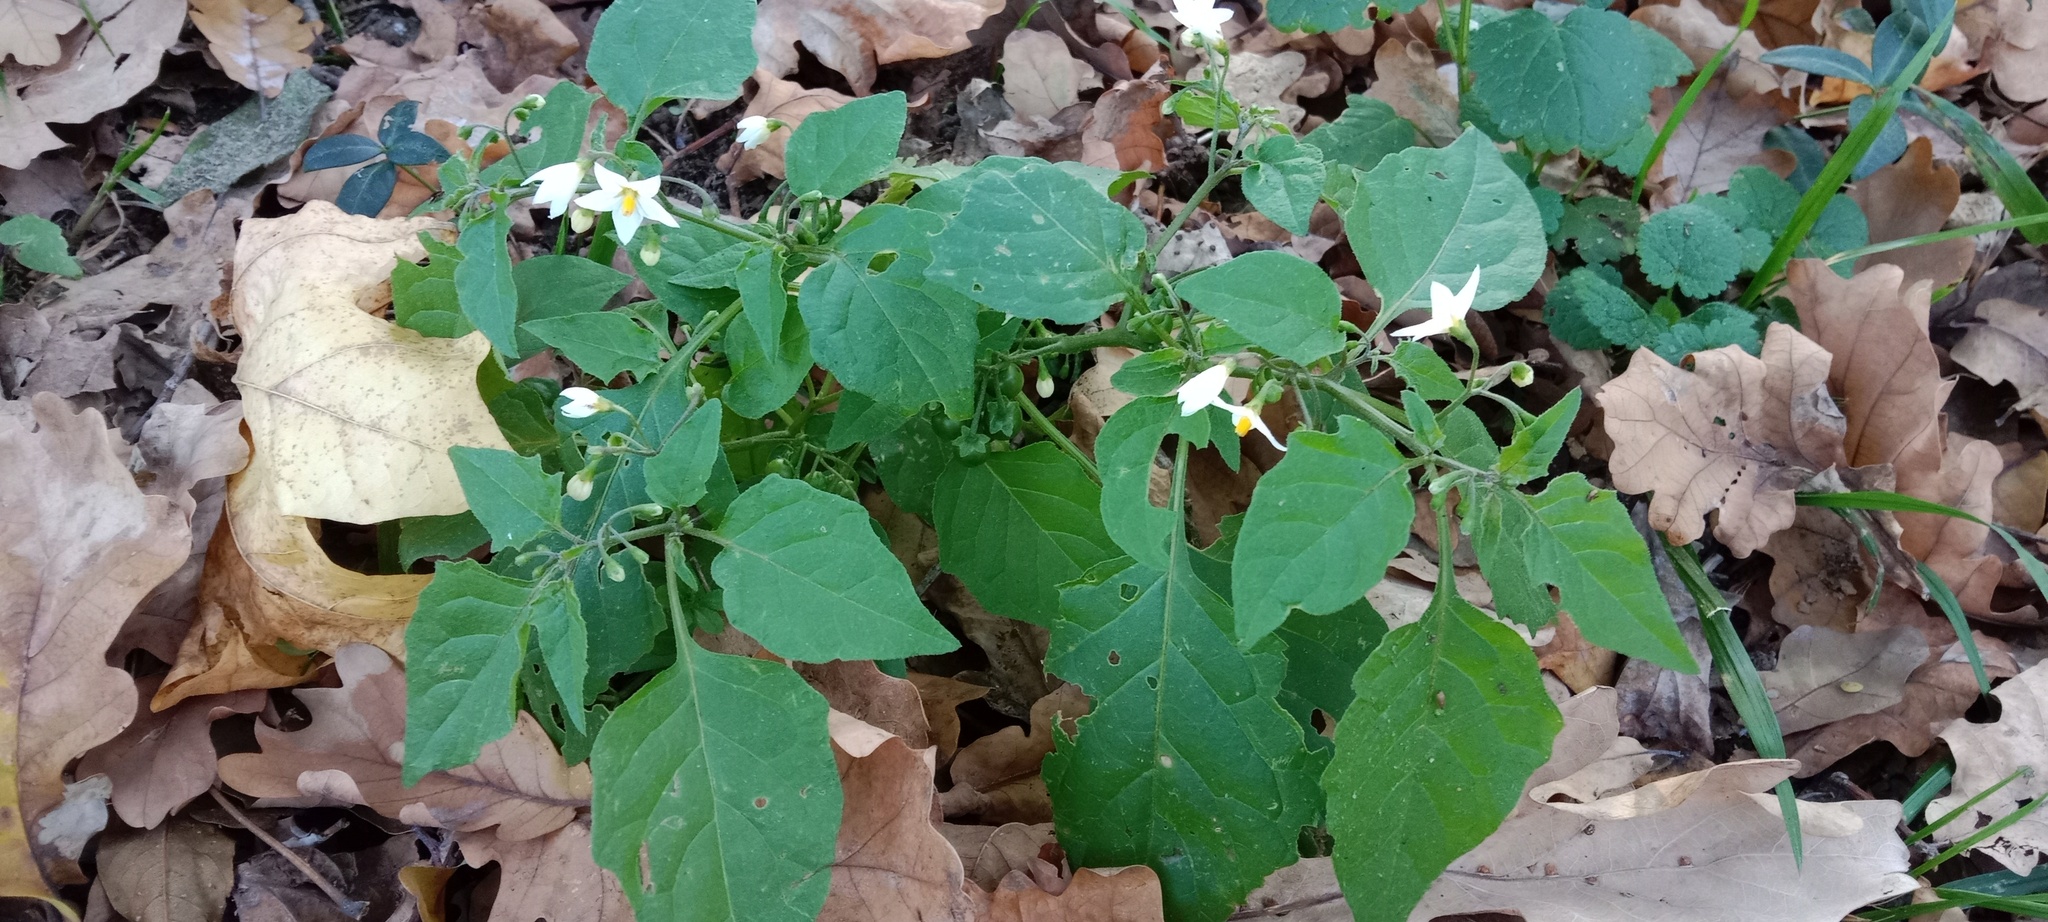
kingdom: Plantae
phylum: Tracheophyta
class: Magnoliopsida
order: Solanales
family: Solanaceae
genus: Solanum
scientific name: Solanum nigrum
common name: Black nightshade
